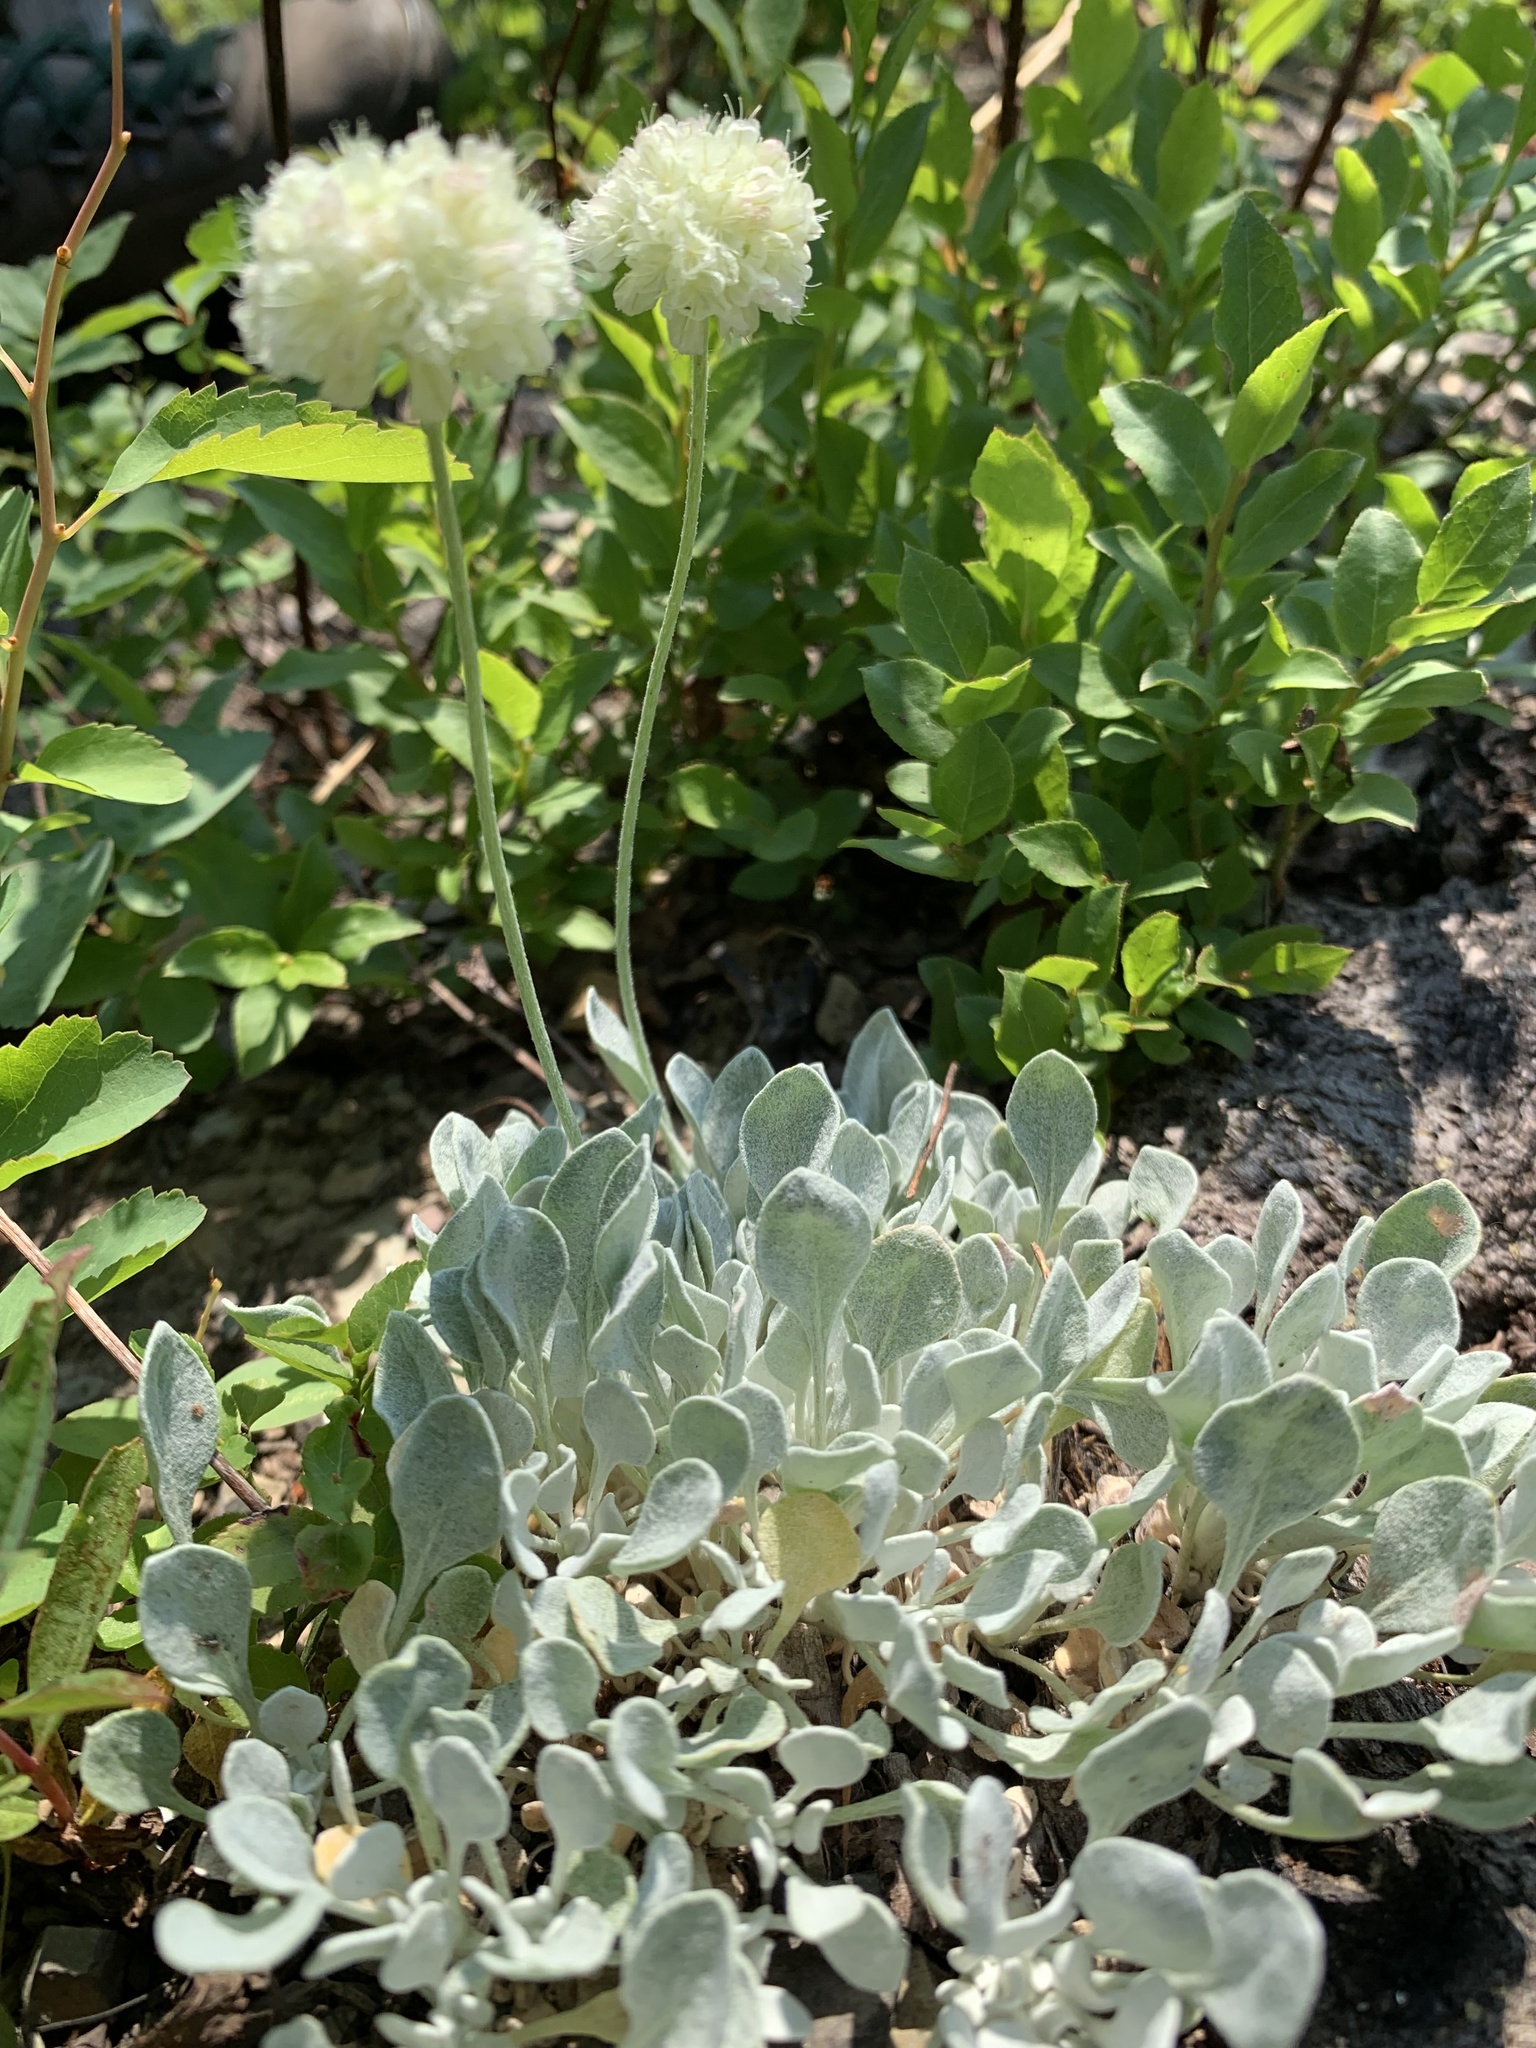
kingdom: Plantae
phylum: Tracheophyta
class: Magnoliopsida
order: Caryophyllales
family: Polygonaceae
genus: Eriogonum
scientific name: Eriogonum ovalifolium
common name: Cushion buckwheat
